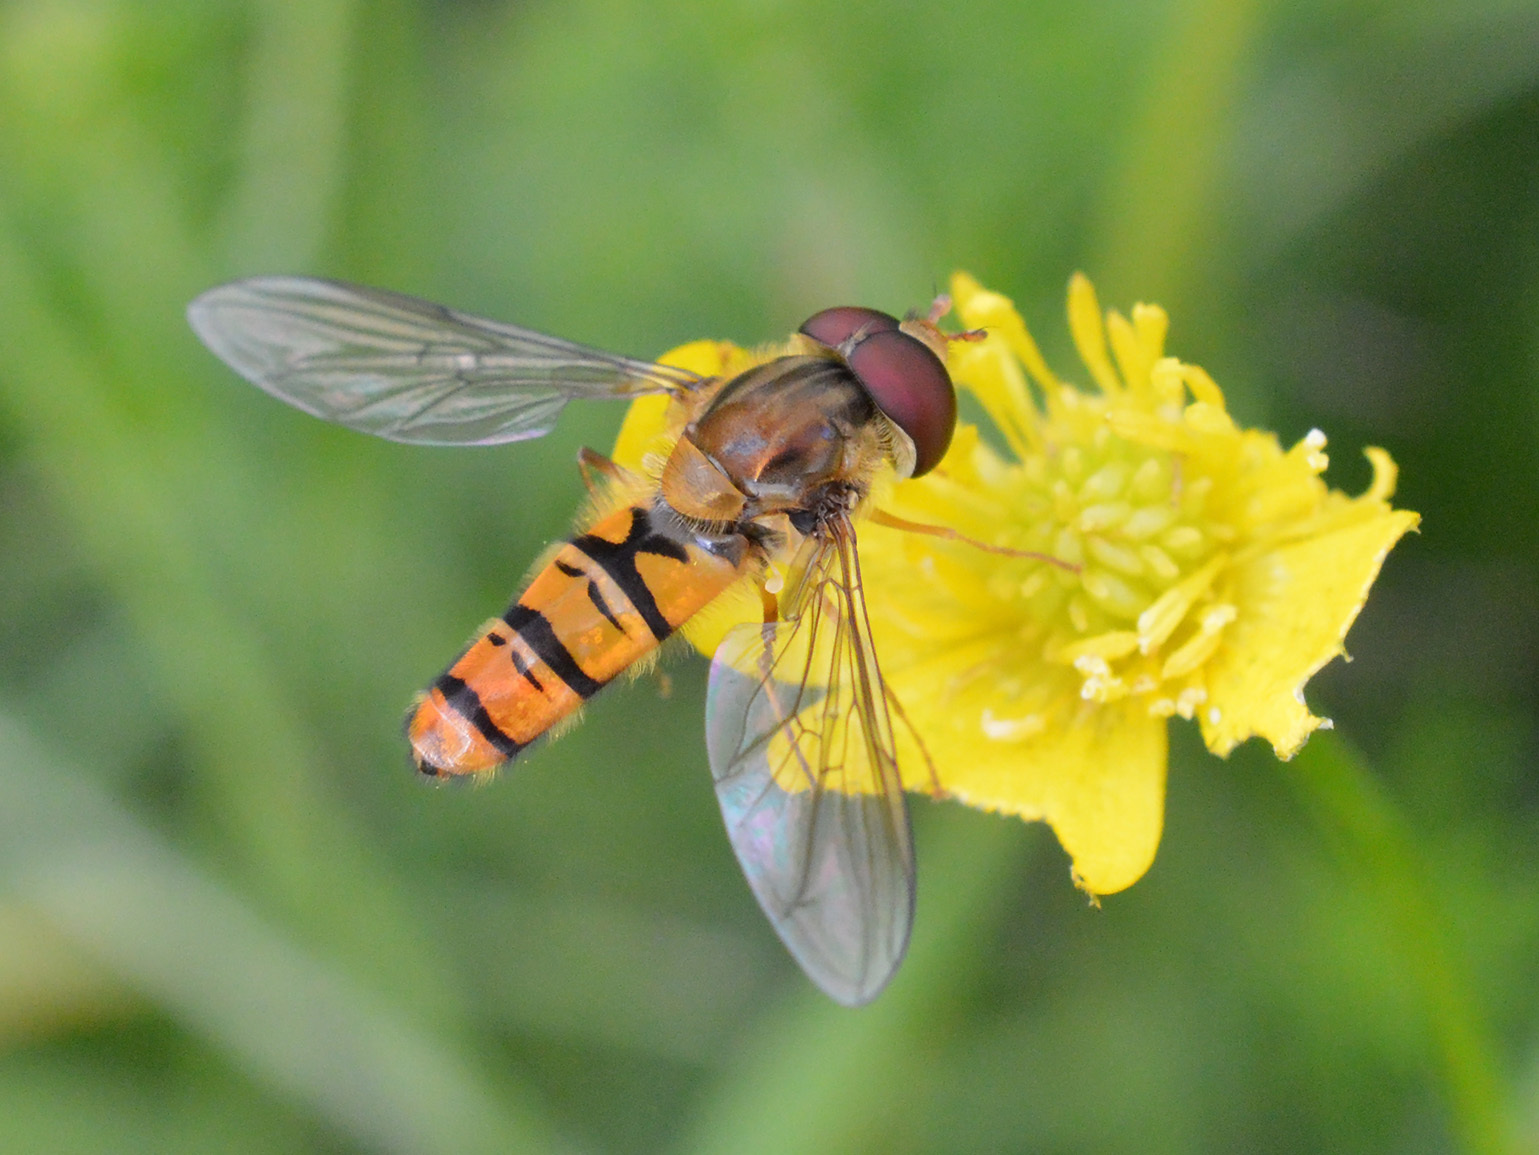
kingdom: Animalia
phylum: Arthropoda
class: Insecta
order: Diptera
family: Syrphidae
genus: Episyrphus
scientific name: Episyrphus balteatus
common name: Marmalade hoverfly
